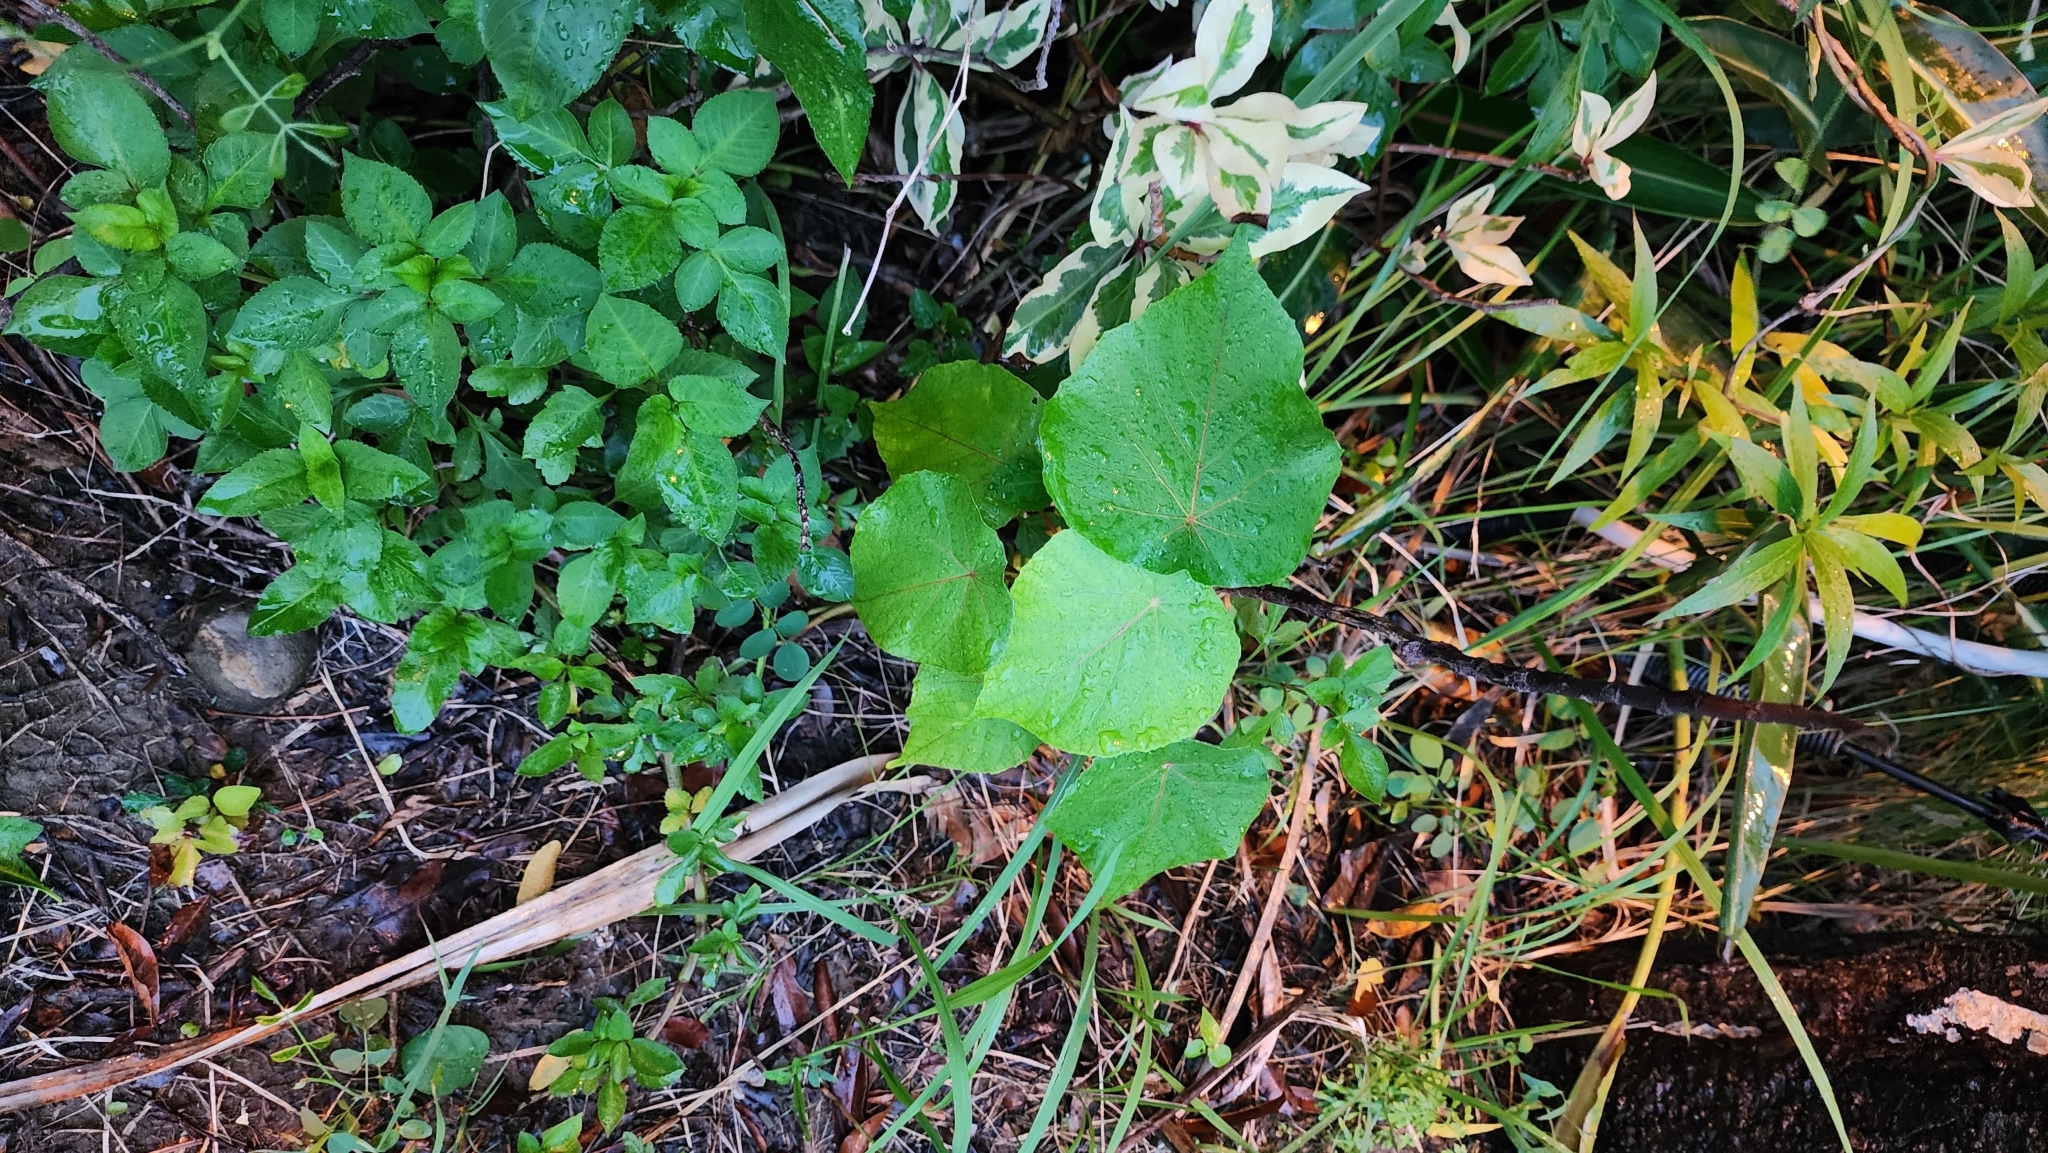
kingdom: Plantae
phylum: Tracheophyta
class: Magnoliopsida
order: Malpighiales
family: Euphorbiaceae
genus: Macaranga
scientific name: Macaranga tanarius
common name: Parasol leaf tree
